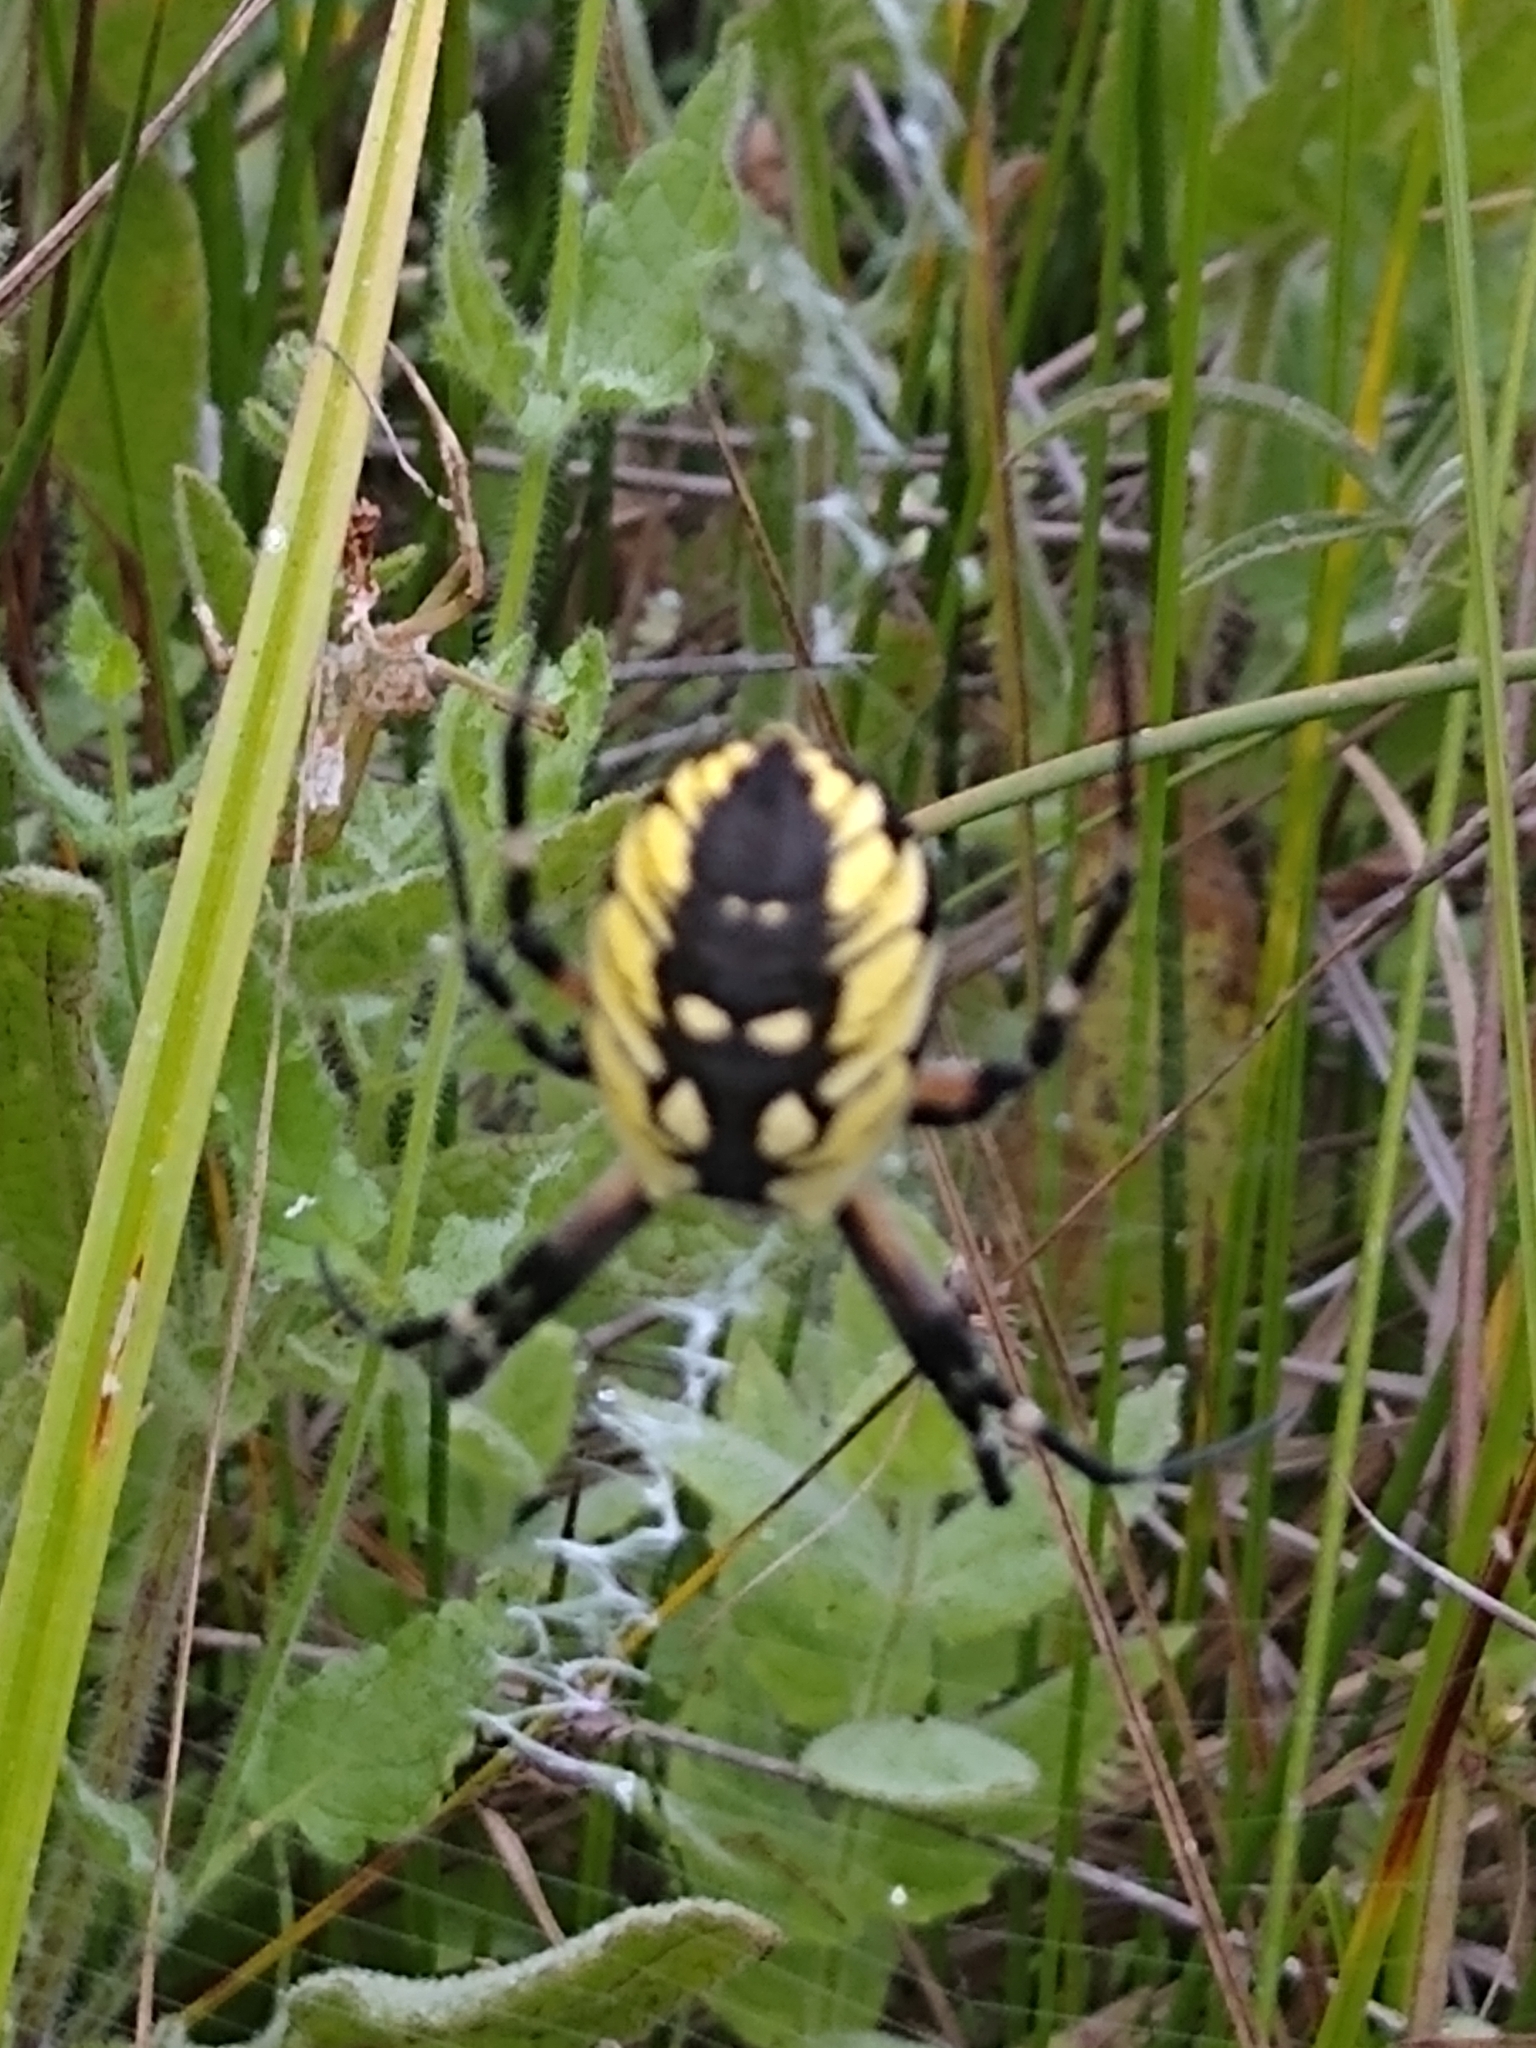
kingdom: Animalia
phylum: Arthropoda
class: Arachnida
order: Araneae
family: Araneidae
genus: Argiope
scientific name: Argiope aurantia
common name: Orb weavers
